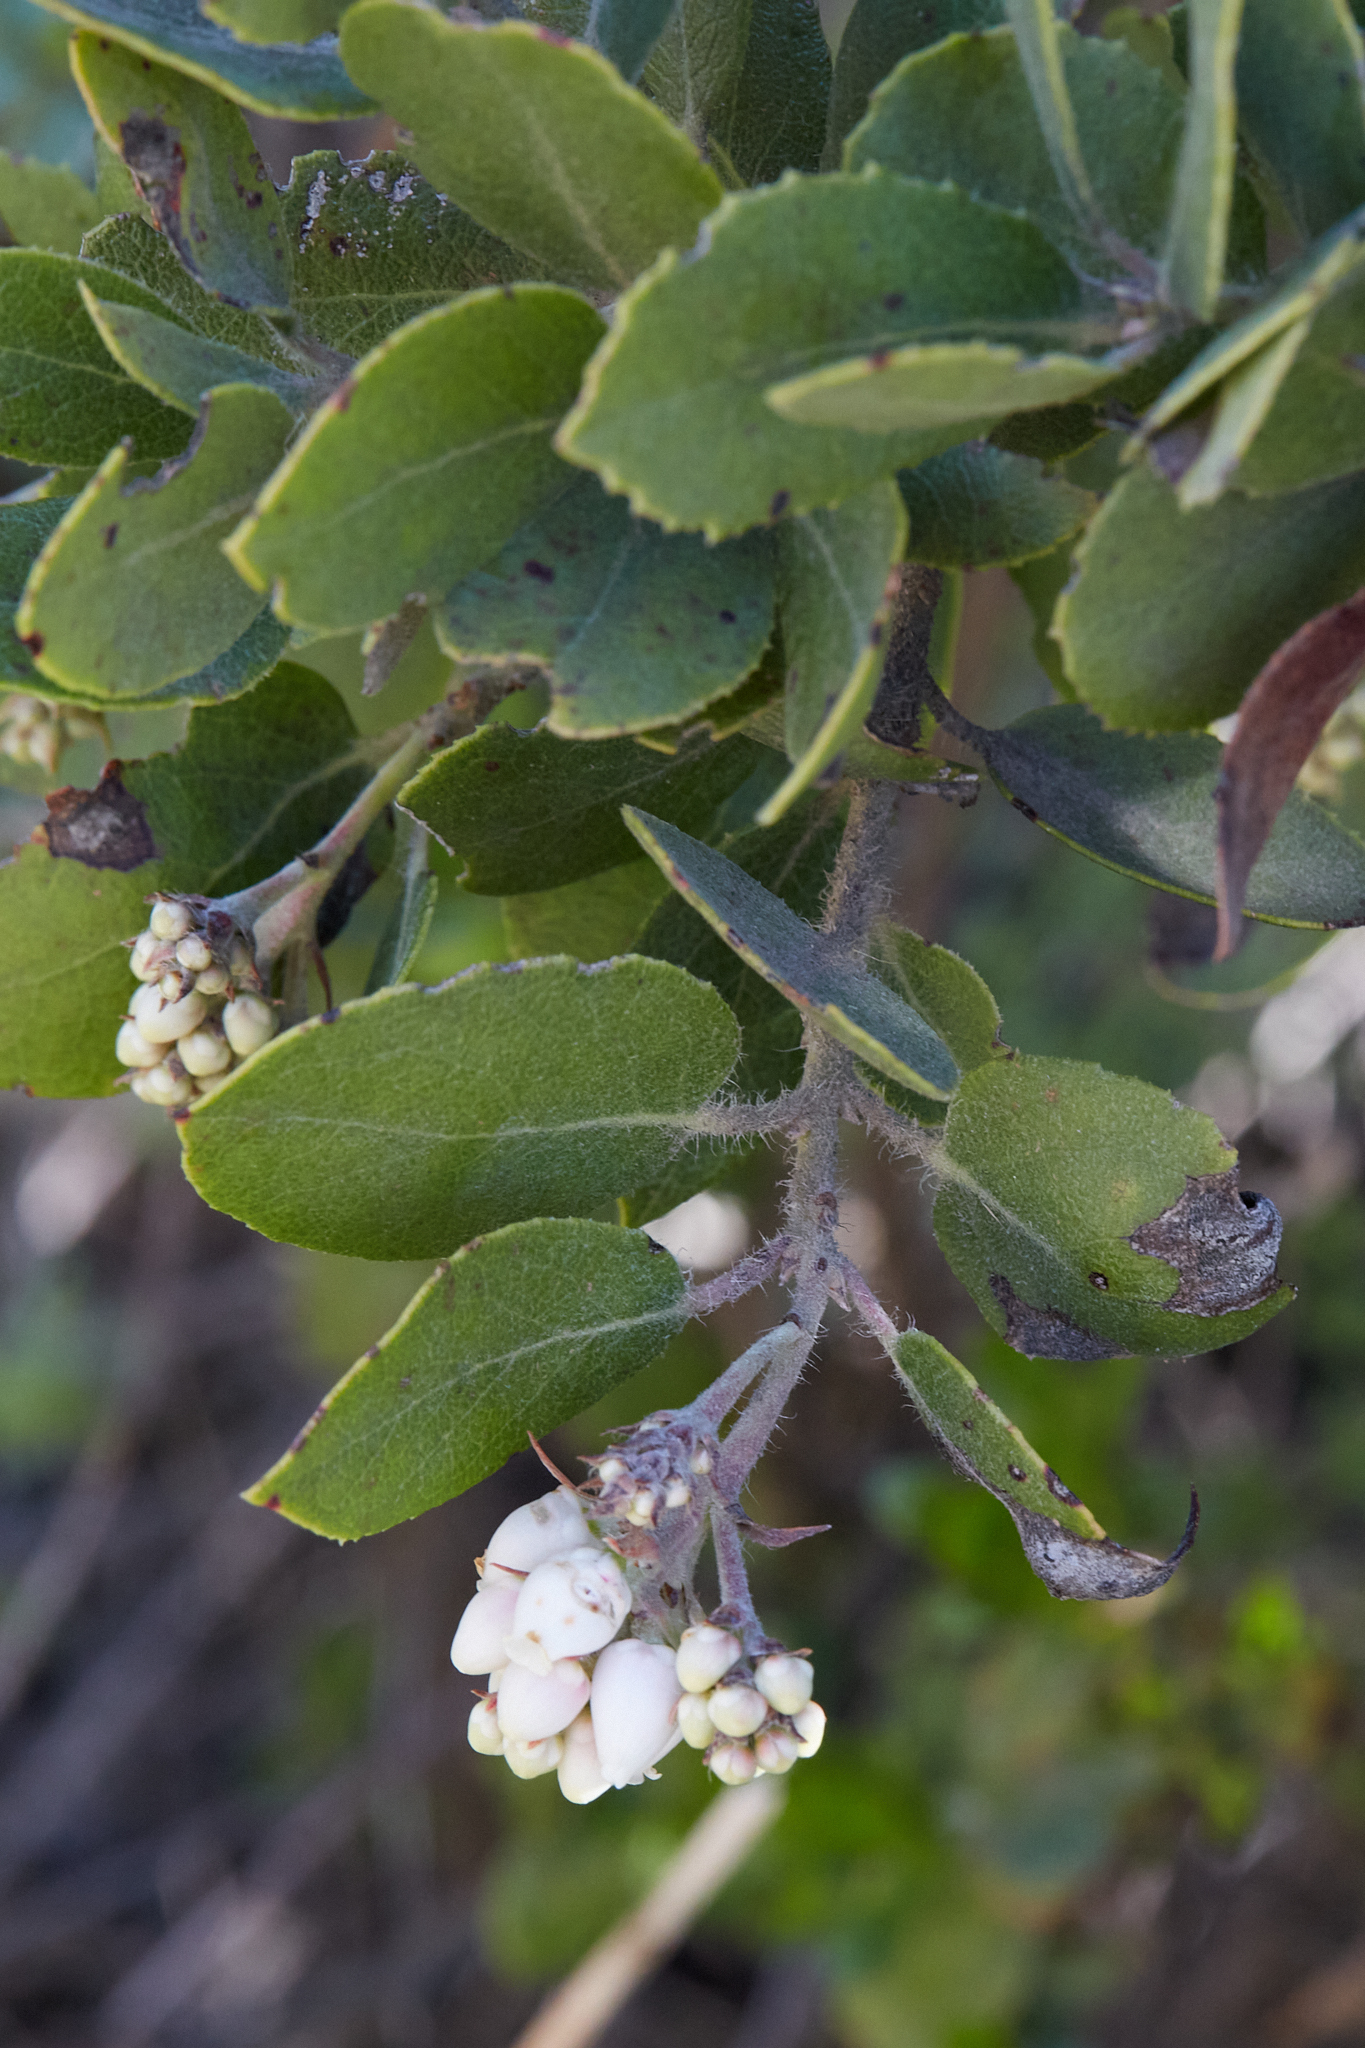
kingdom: Plantae
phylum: Tracheophyta
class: Magnoliopsida
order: Ericales
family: Ericaceae
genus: Arctostaphylos
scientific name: Arctostaphylos crustacea
